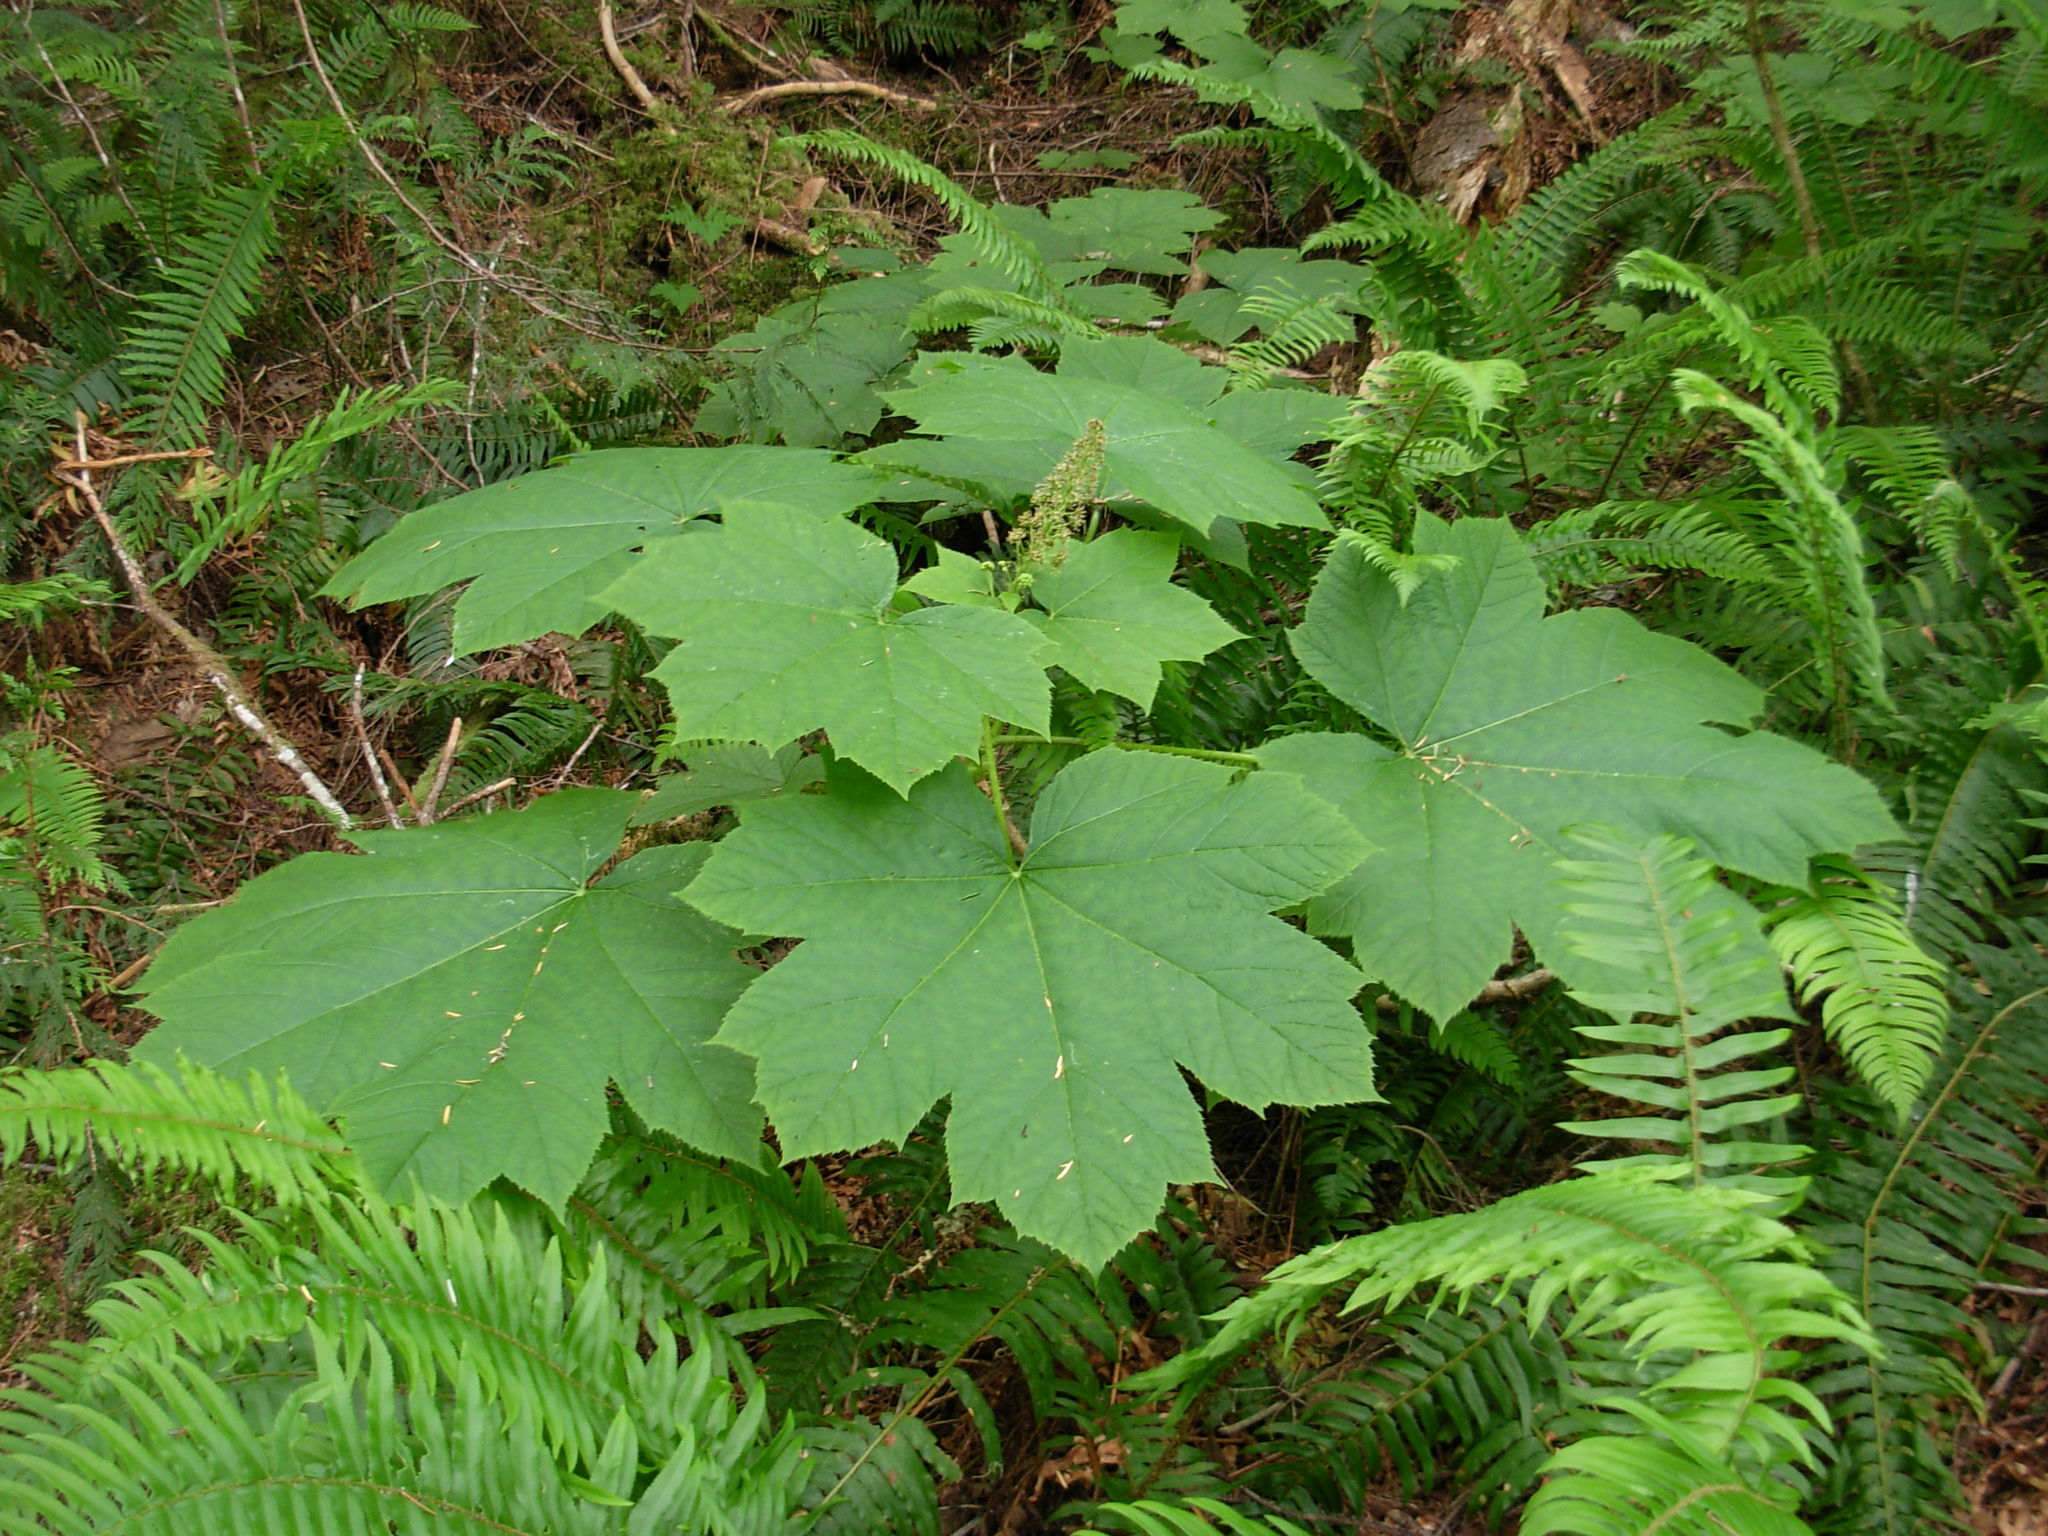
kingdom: Plantae
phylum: Tracheophyta
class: Magnoliopsida
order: Apiales
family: Araliaceae
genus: Oplopanax
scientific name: Oplopanax horridus
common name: Devil's walking-stick
